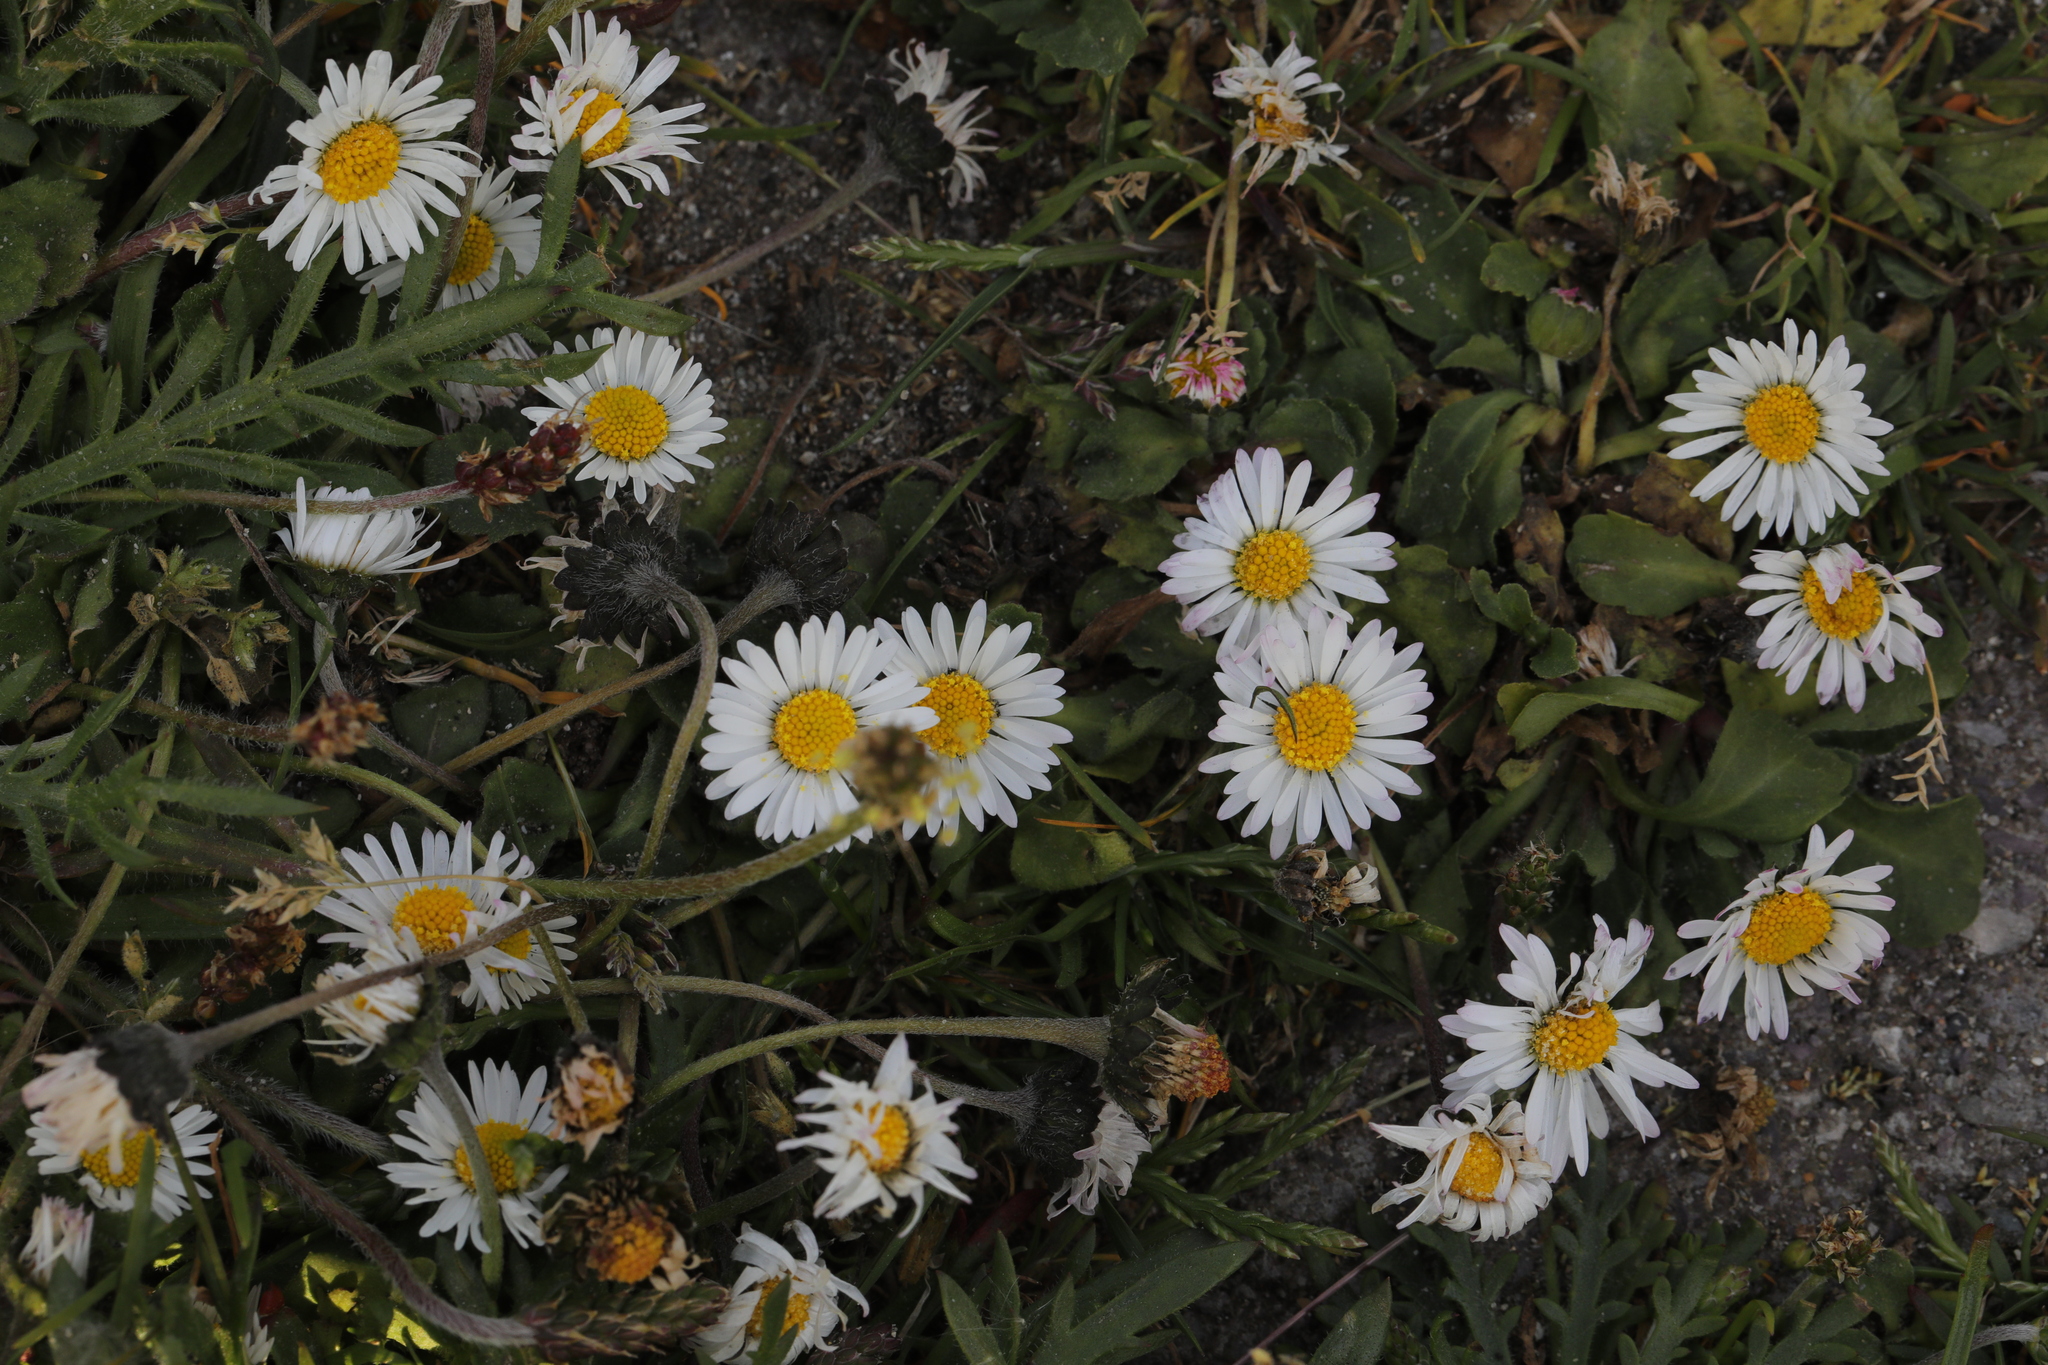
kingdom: Plantae
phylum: Tracheophyta
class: Magnoliopsida
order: Asterales
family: Asteraceae
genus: Bellis
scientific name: Bellis perennis
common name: Lawndaisy
